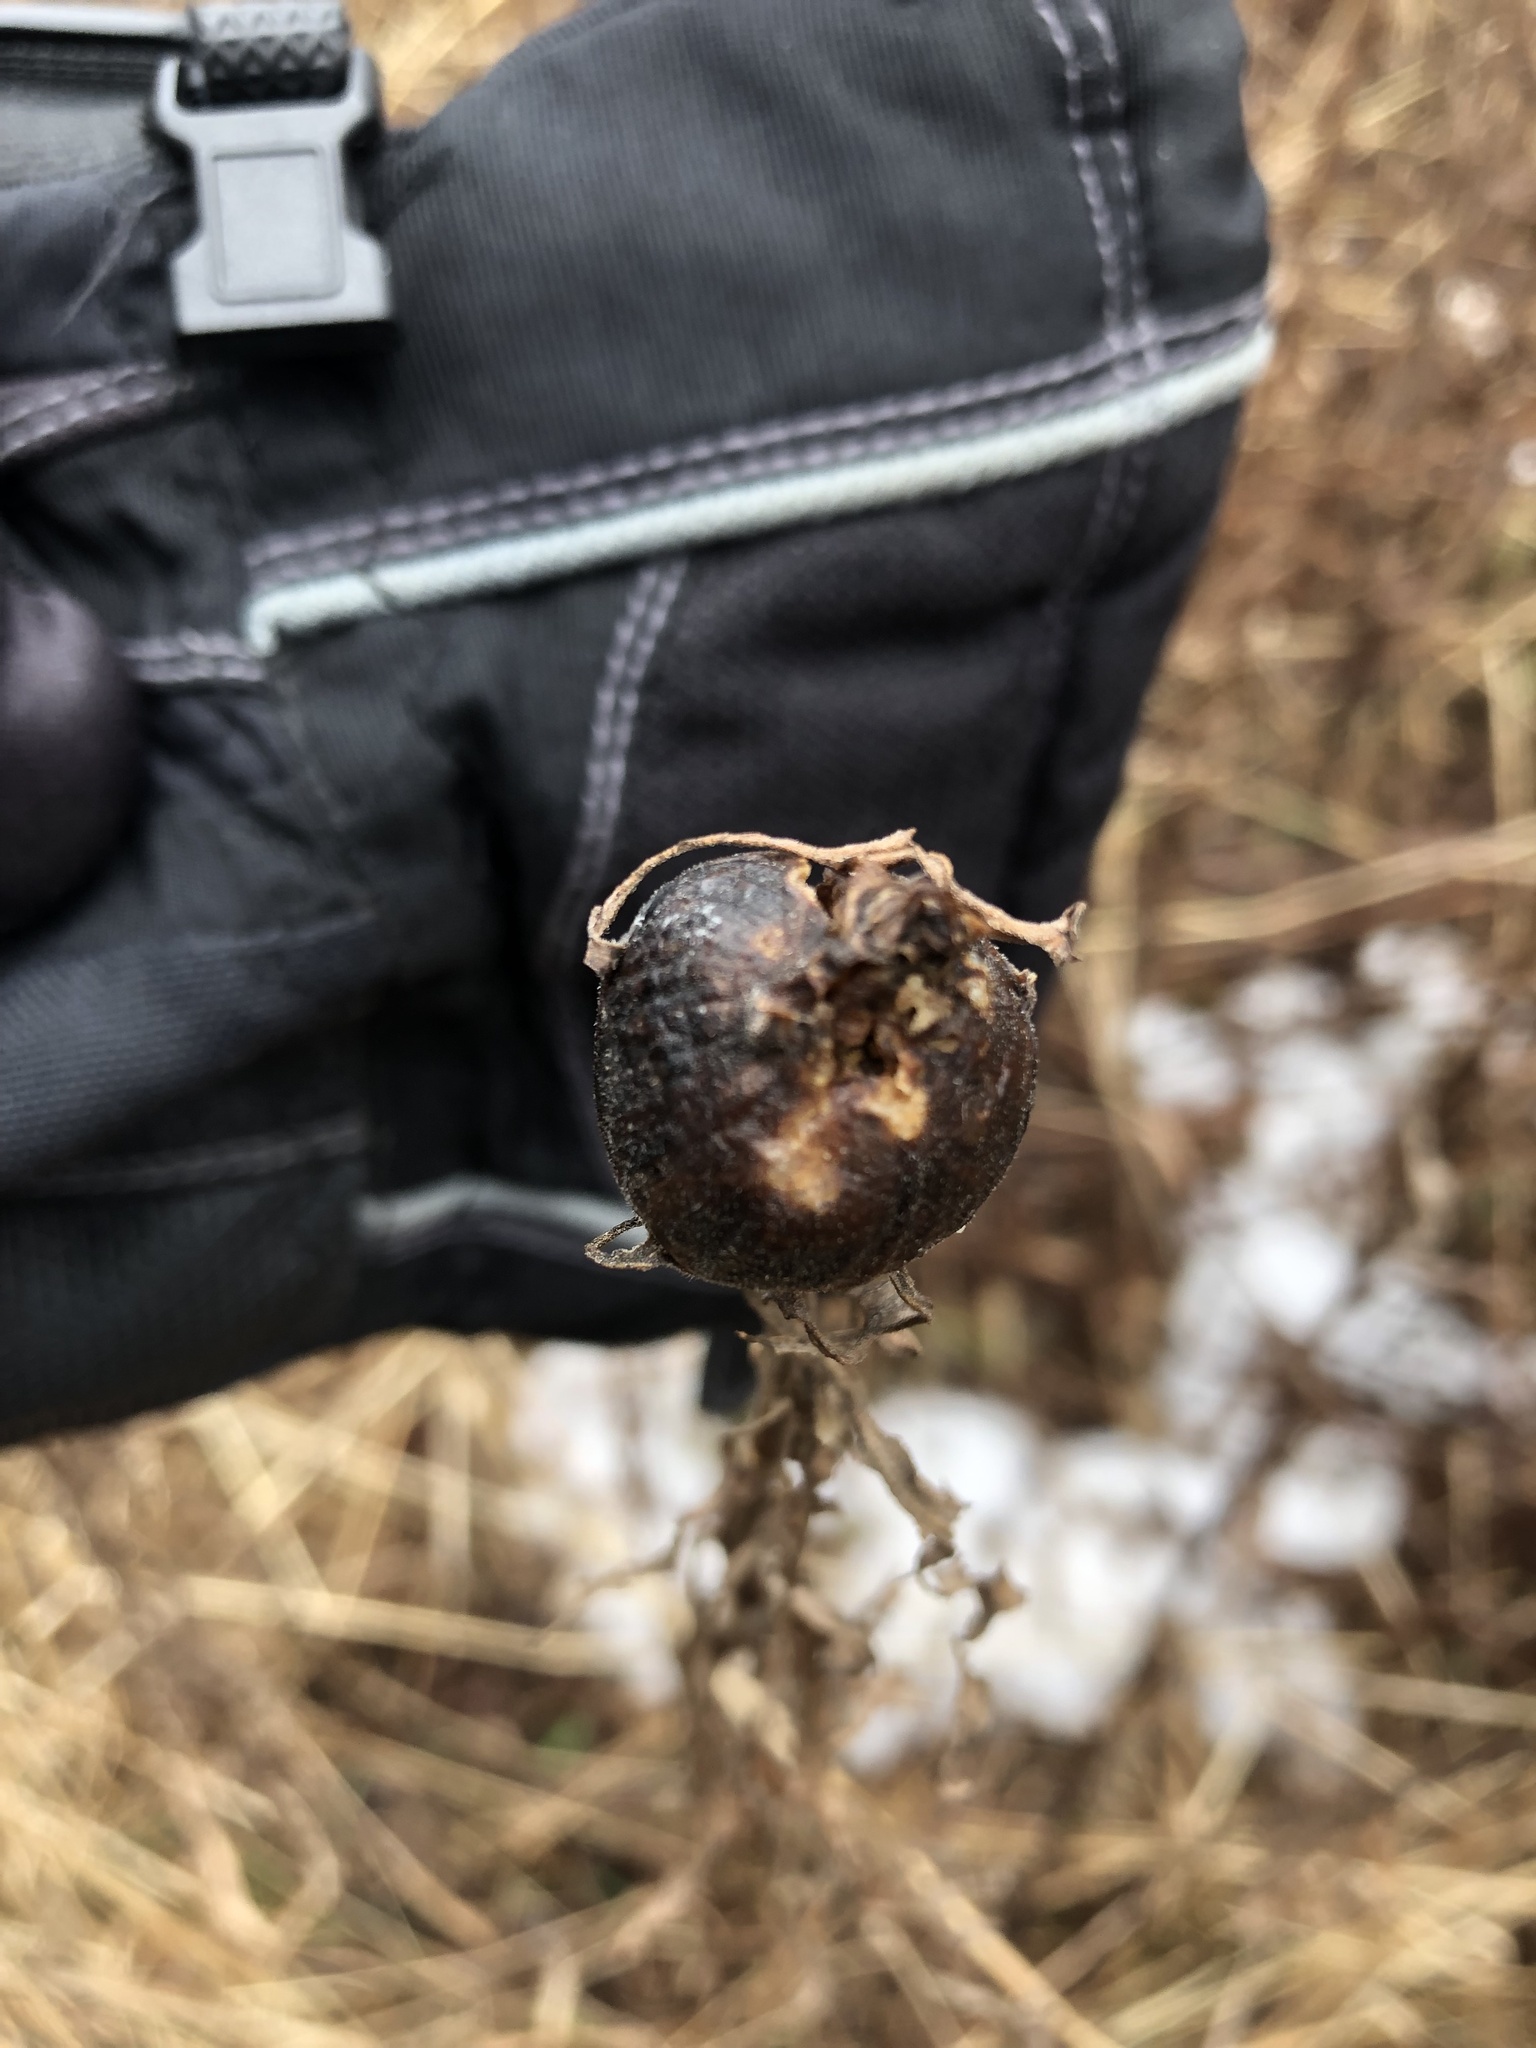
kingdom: Animalia
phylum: Arthropoda
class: Insecta
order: Diptera
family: Tephritidae
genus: Eurosta
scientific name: Eurosta solidaginis
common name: Goldenrod gall fly
